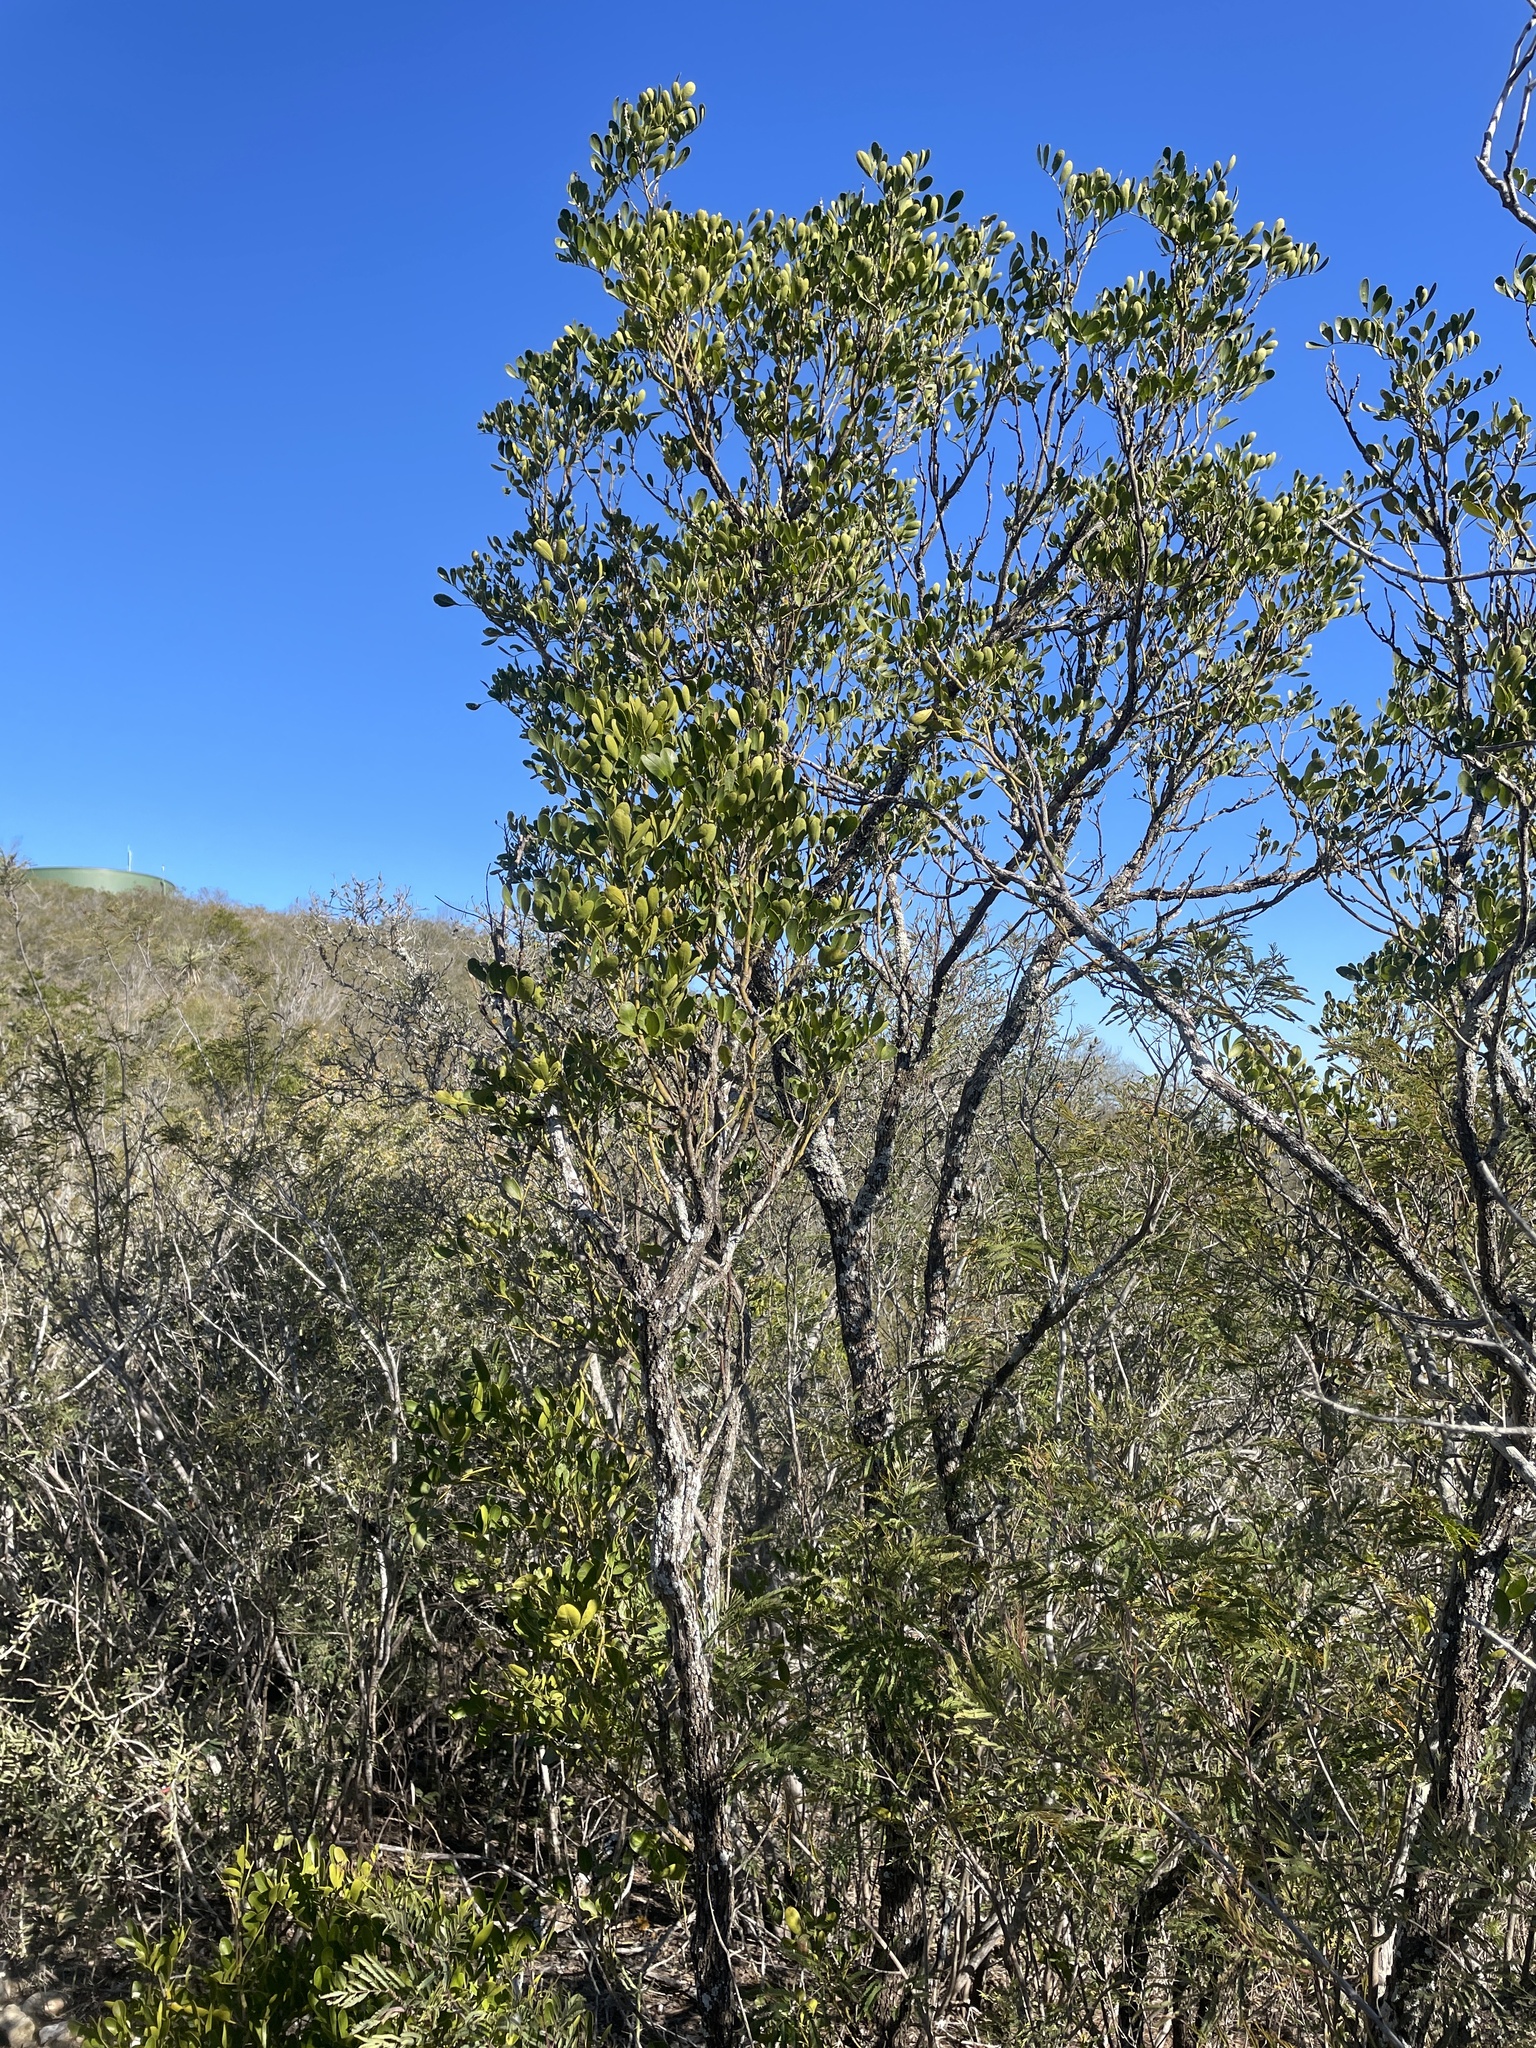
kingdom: Plantae
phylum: Tracheophyta
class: Magnoliopsida
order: Fabales
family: Fabaceae
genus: Dermatophyllum
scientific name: Dermatophyllum secundiflorum
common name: Texas-mountain-laurel
